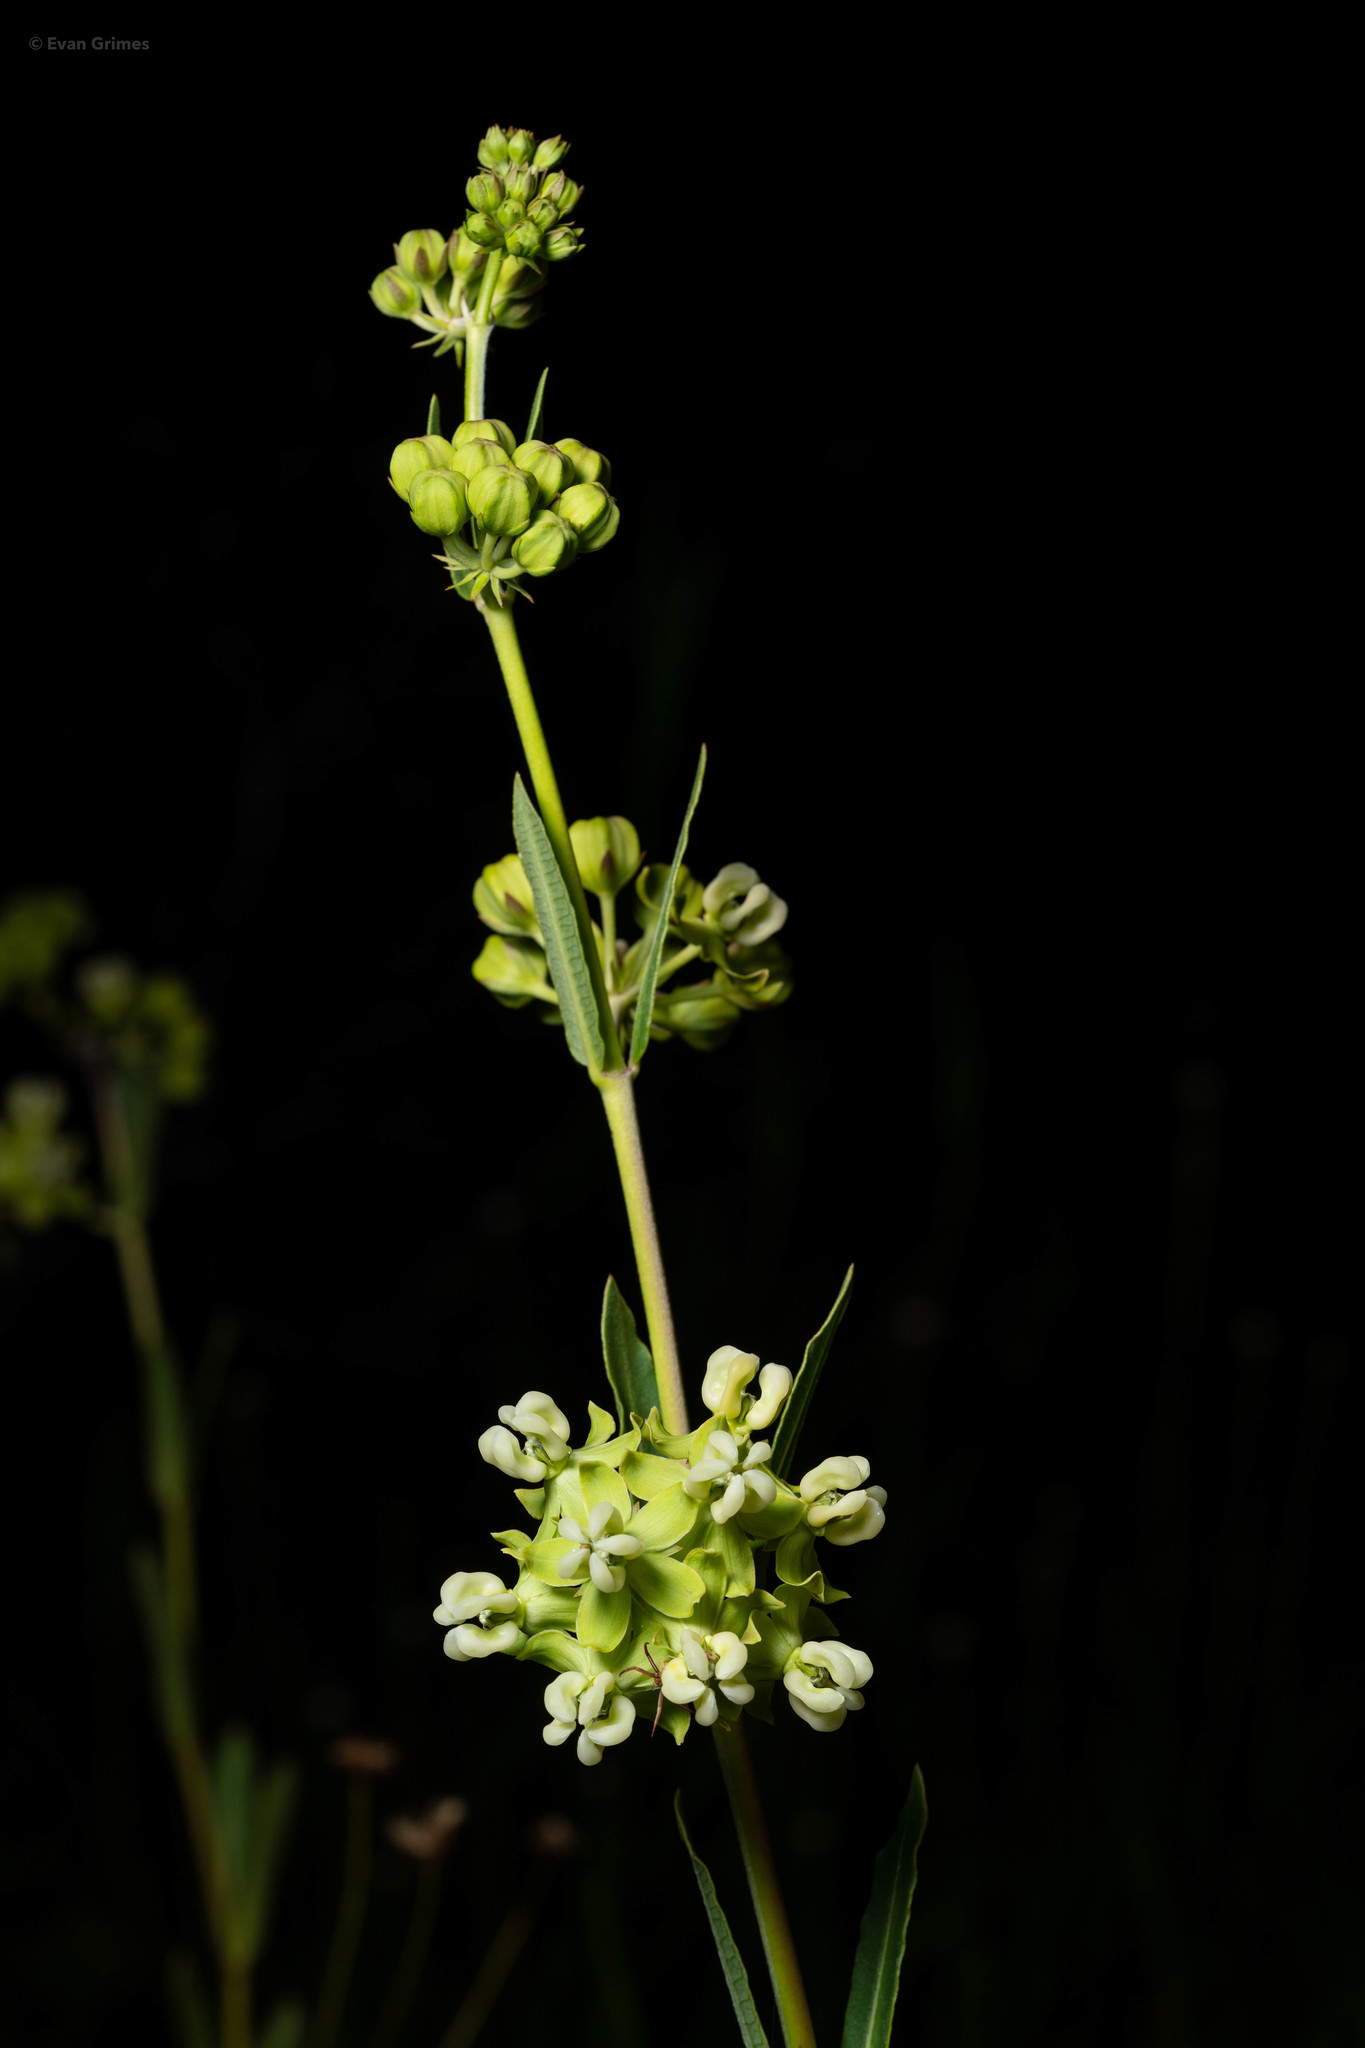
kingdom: Plantae
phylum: Tracheophyta
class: Magnoliopsida
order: Gentianales
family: Apocynaceae
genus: Asclepias
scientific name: Asclepias connivens
